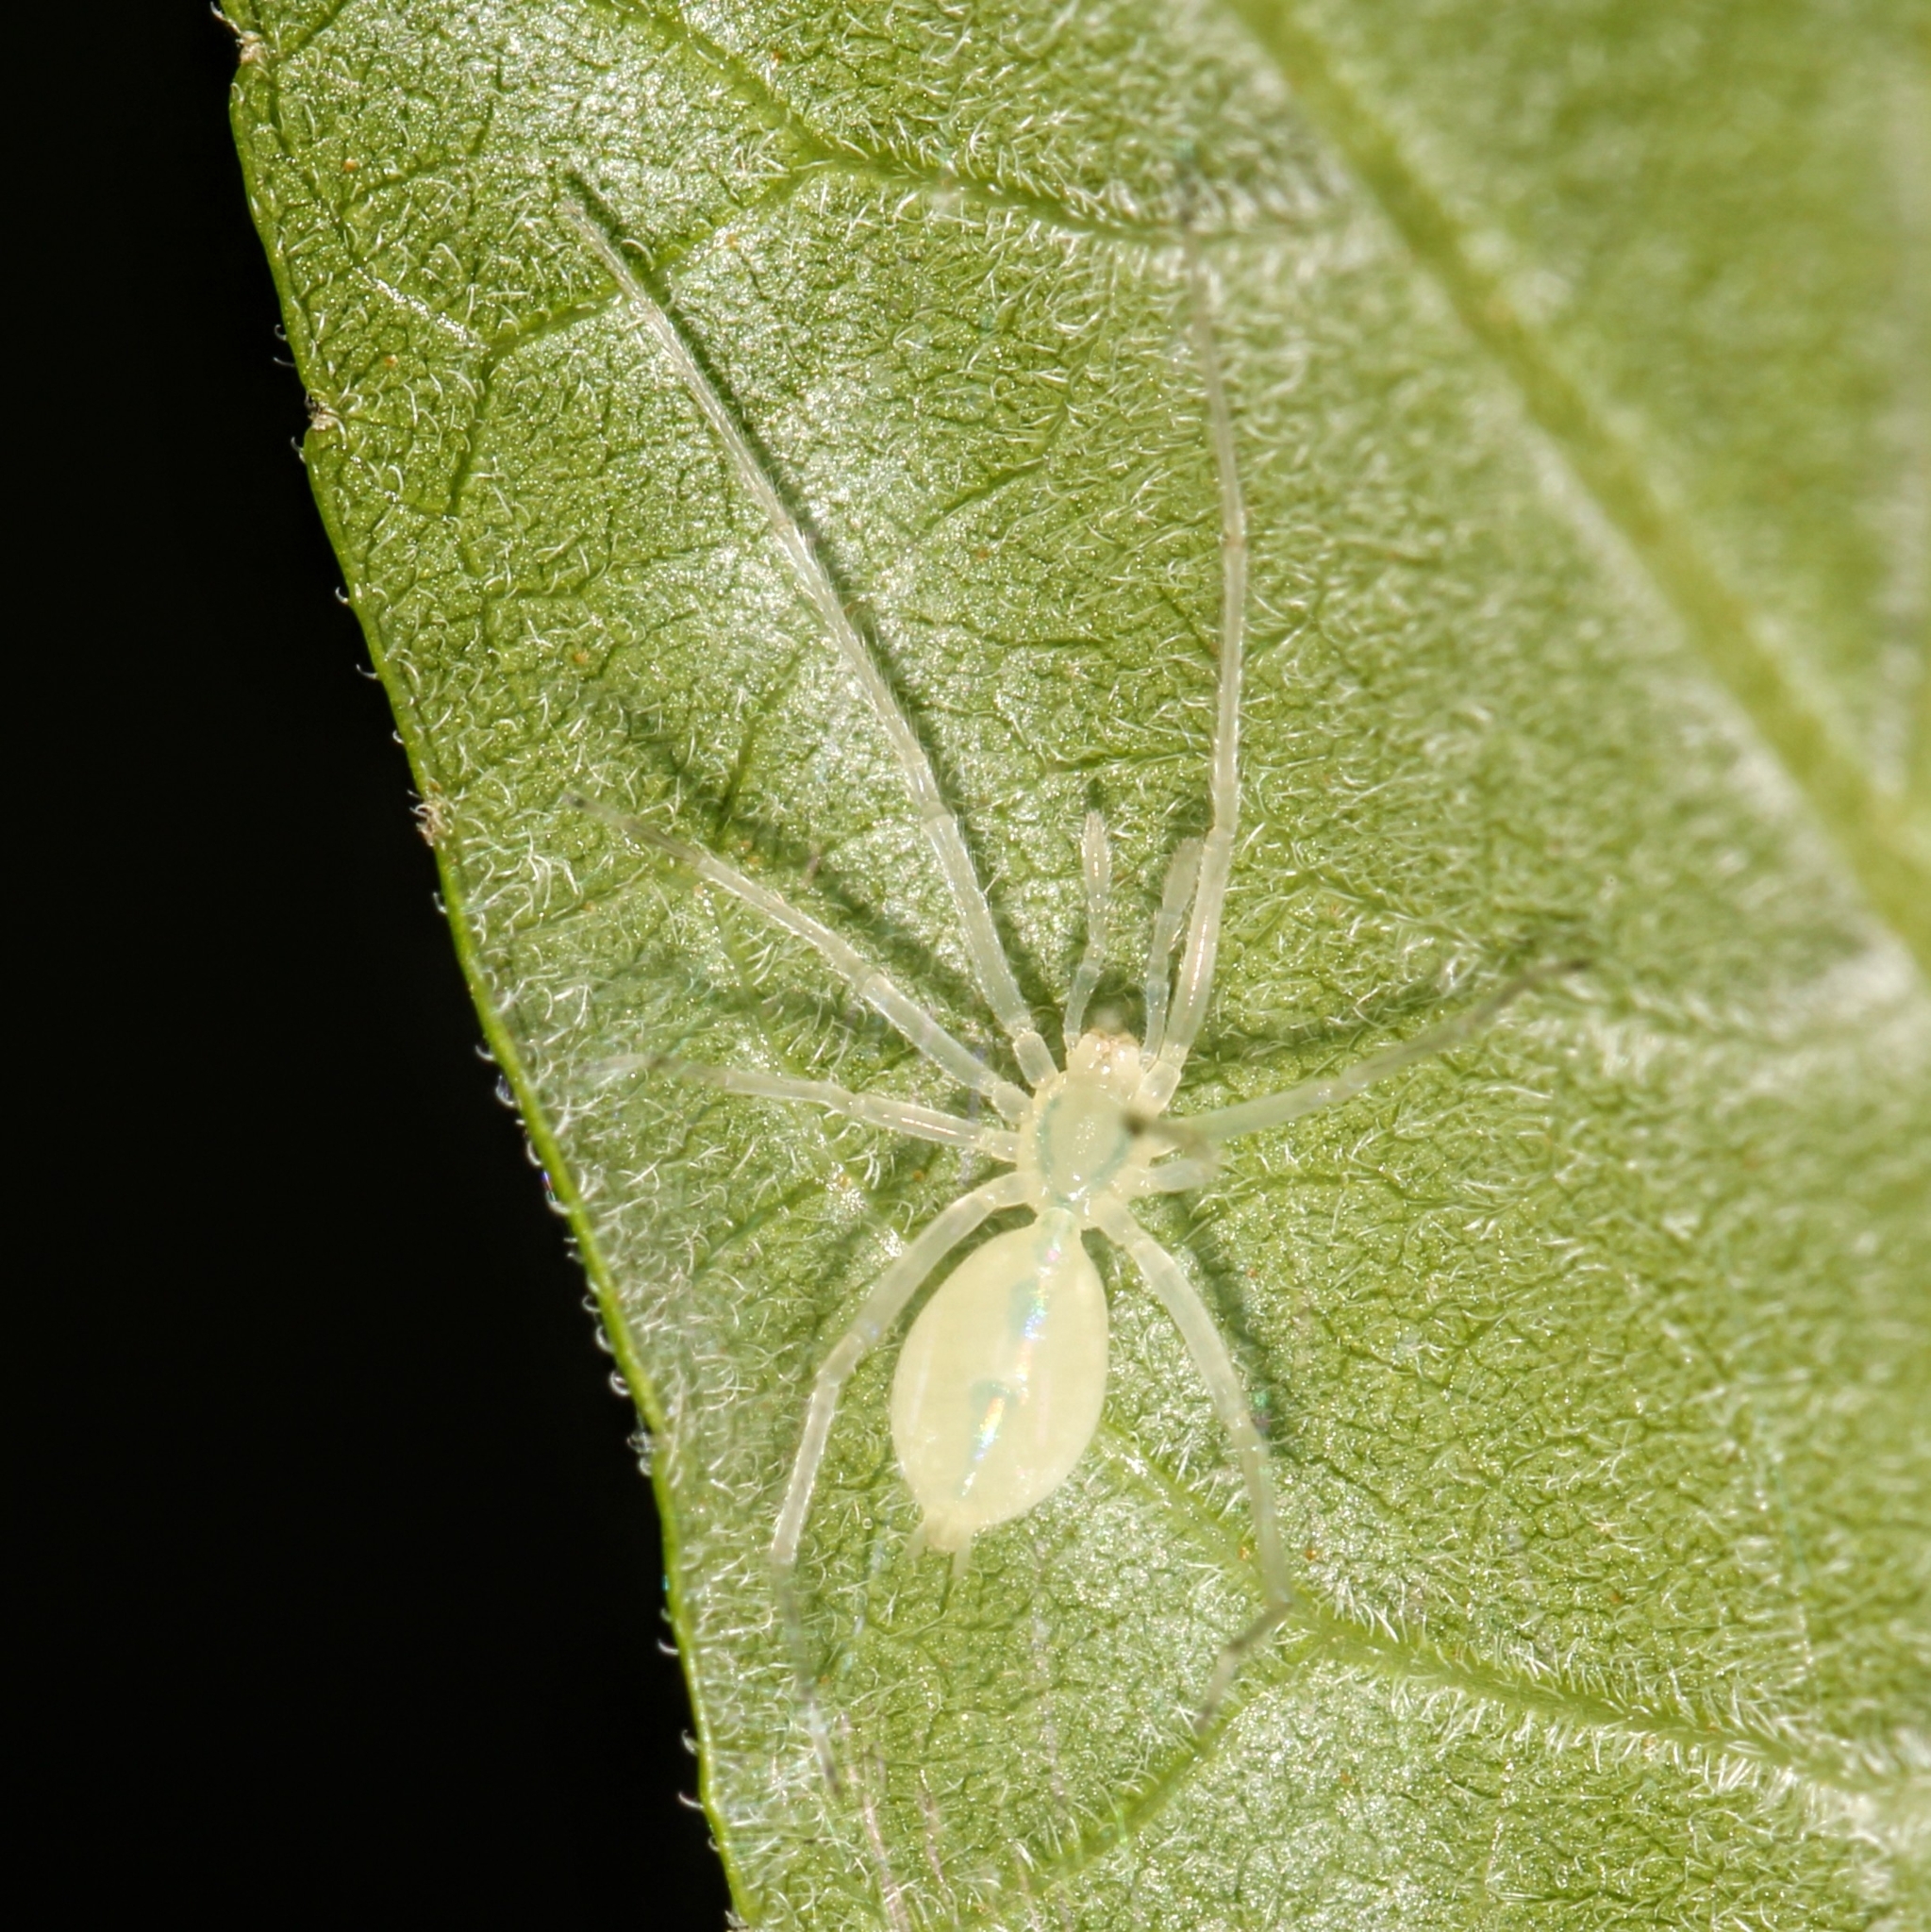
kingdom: Animalia
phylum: Arthropoda
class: Arachnida
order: Araneae
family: Anyphaenidae
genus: Wulfila
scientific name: Wulfila albens
